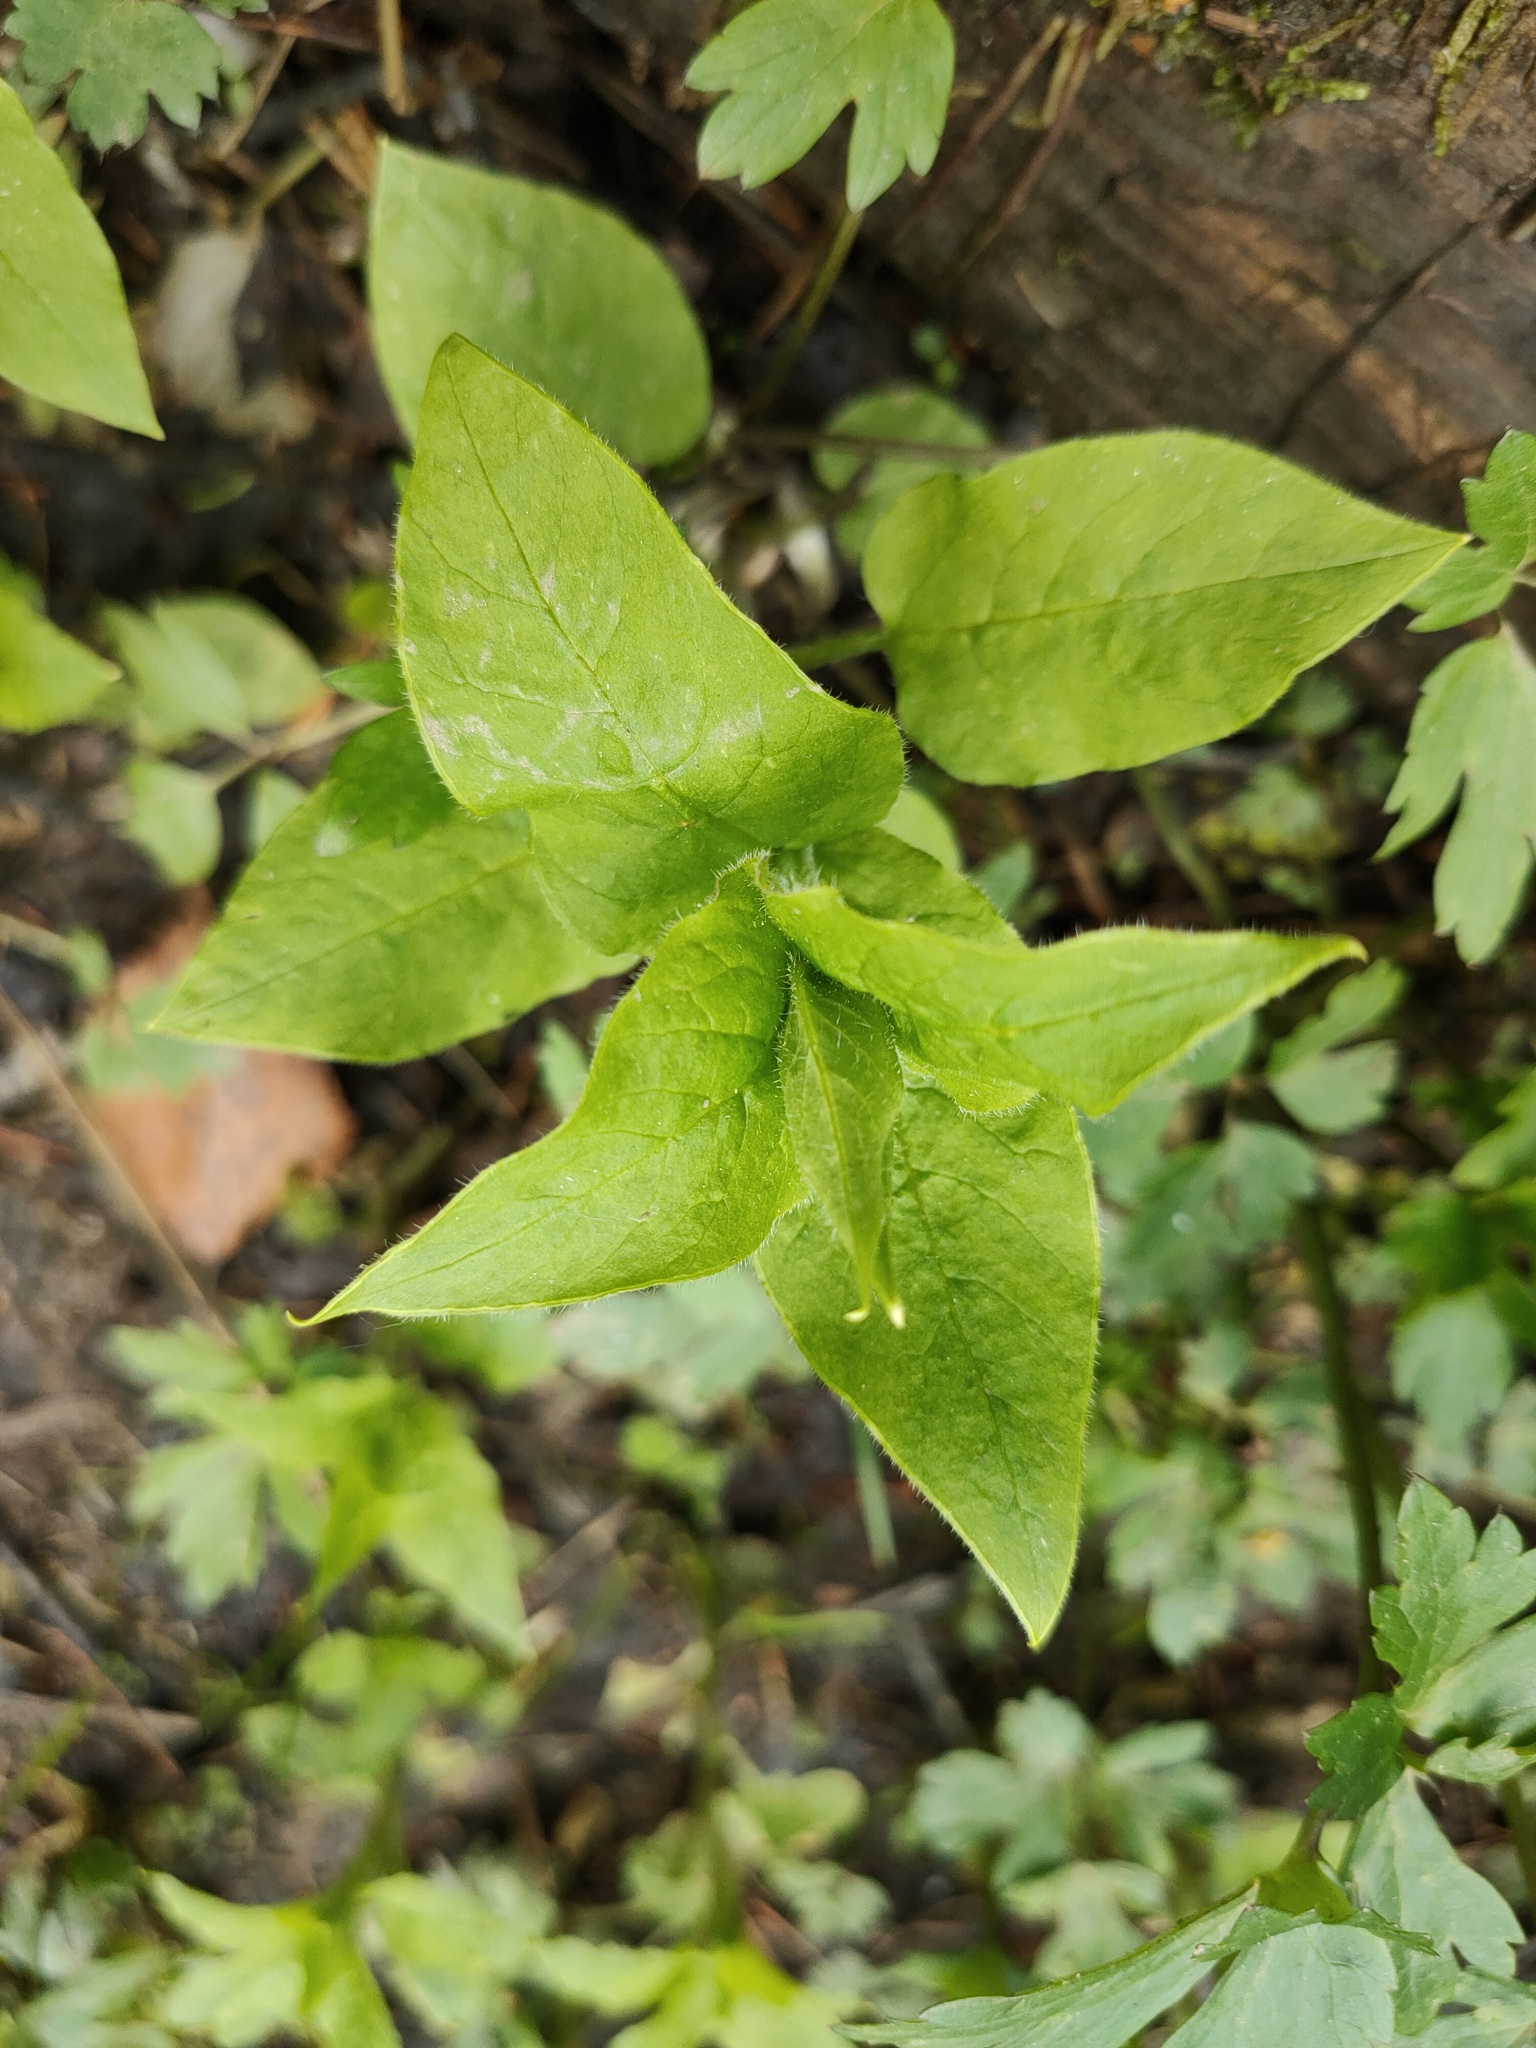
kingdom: Plantae
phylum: Tracheophyta
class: Magnoliopsida
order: Caryophyllales
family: Caryophyllaceae
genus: Stellaria
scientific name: Stellaria bungeana
